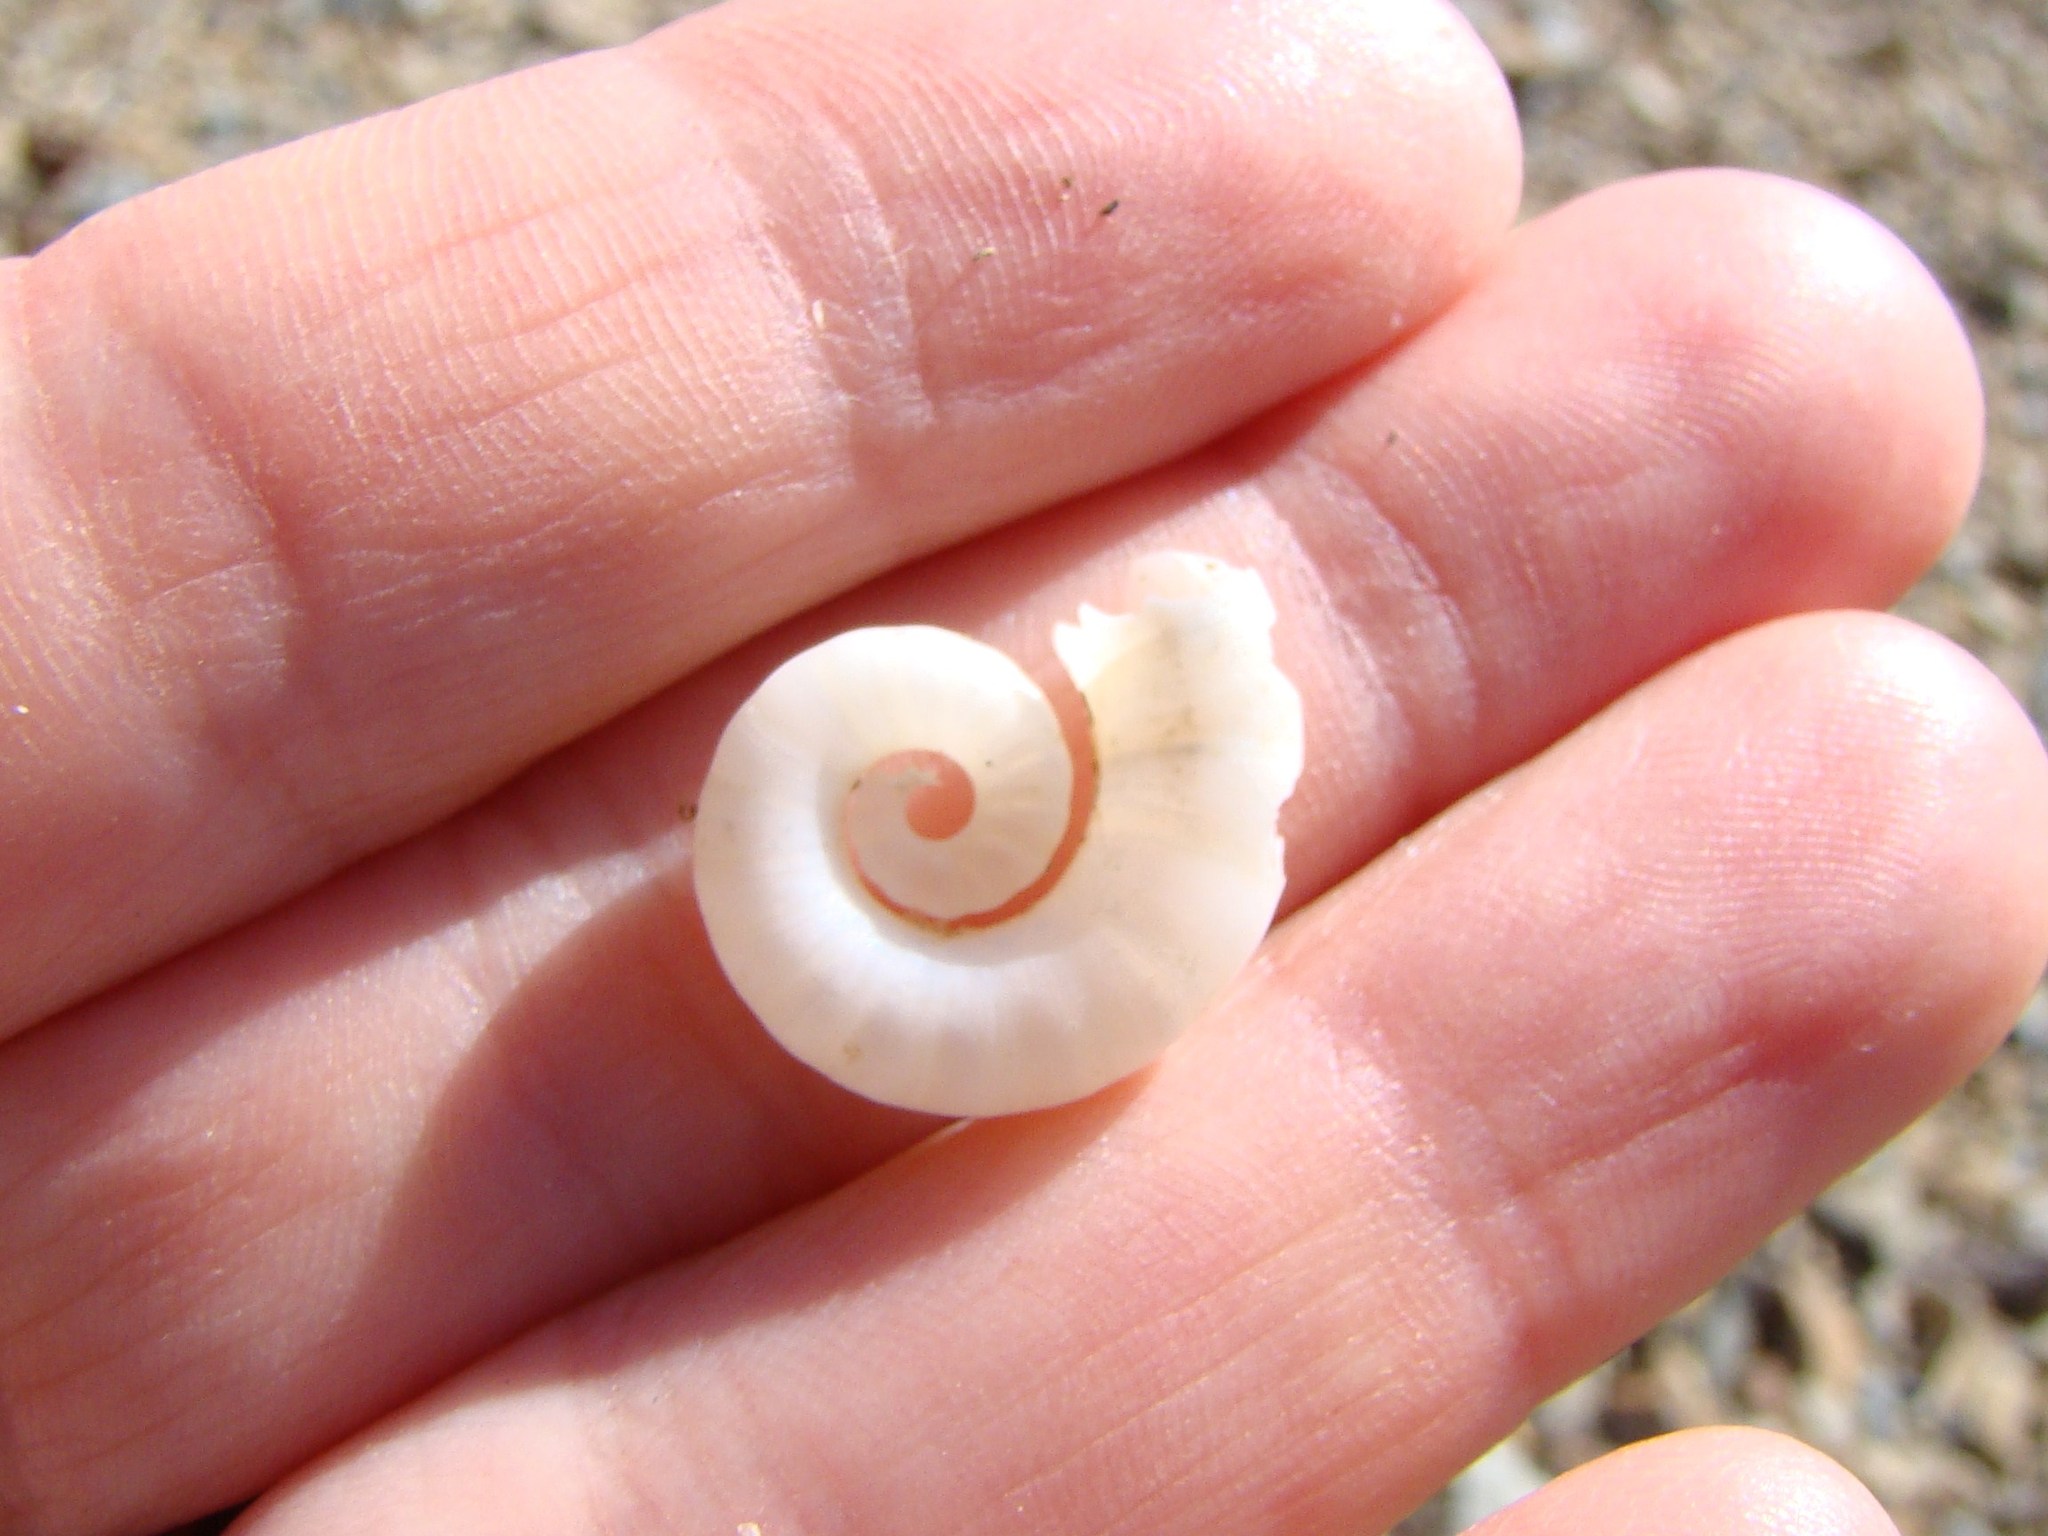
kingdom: Animalia
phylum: Mollusca
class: Cephalopoda
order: Spirulida
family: Spirulidae
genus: Spirula
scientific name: Spirula spirula
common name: Ram's horn squid
